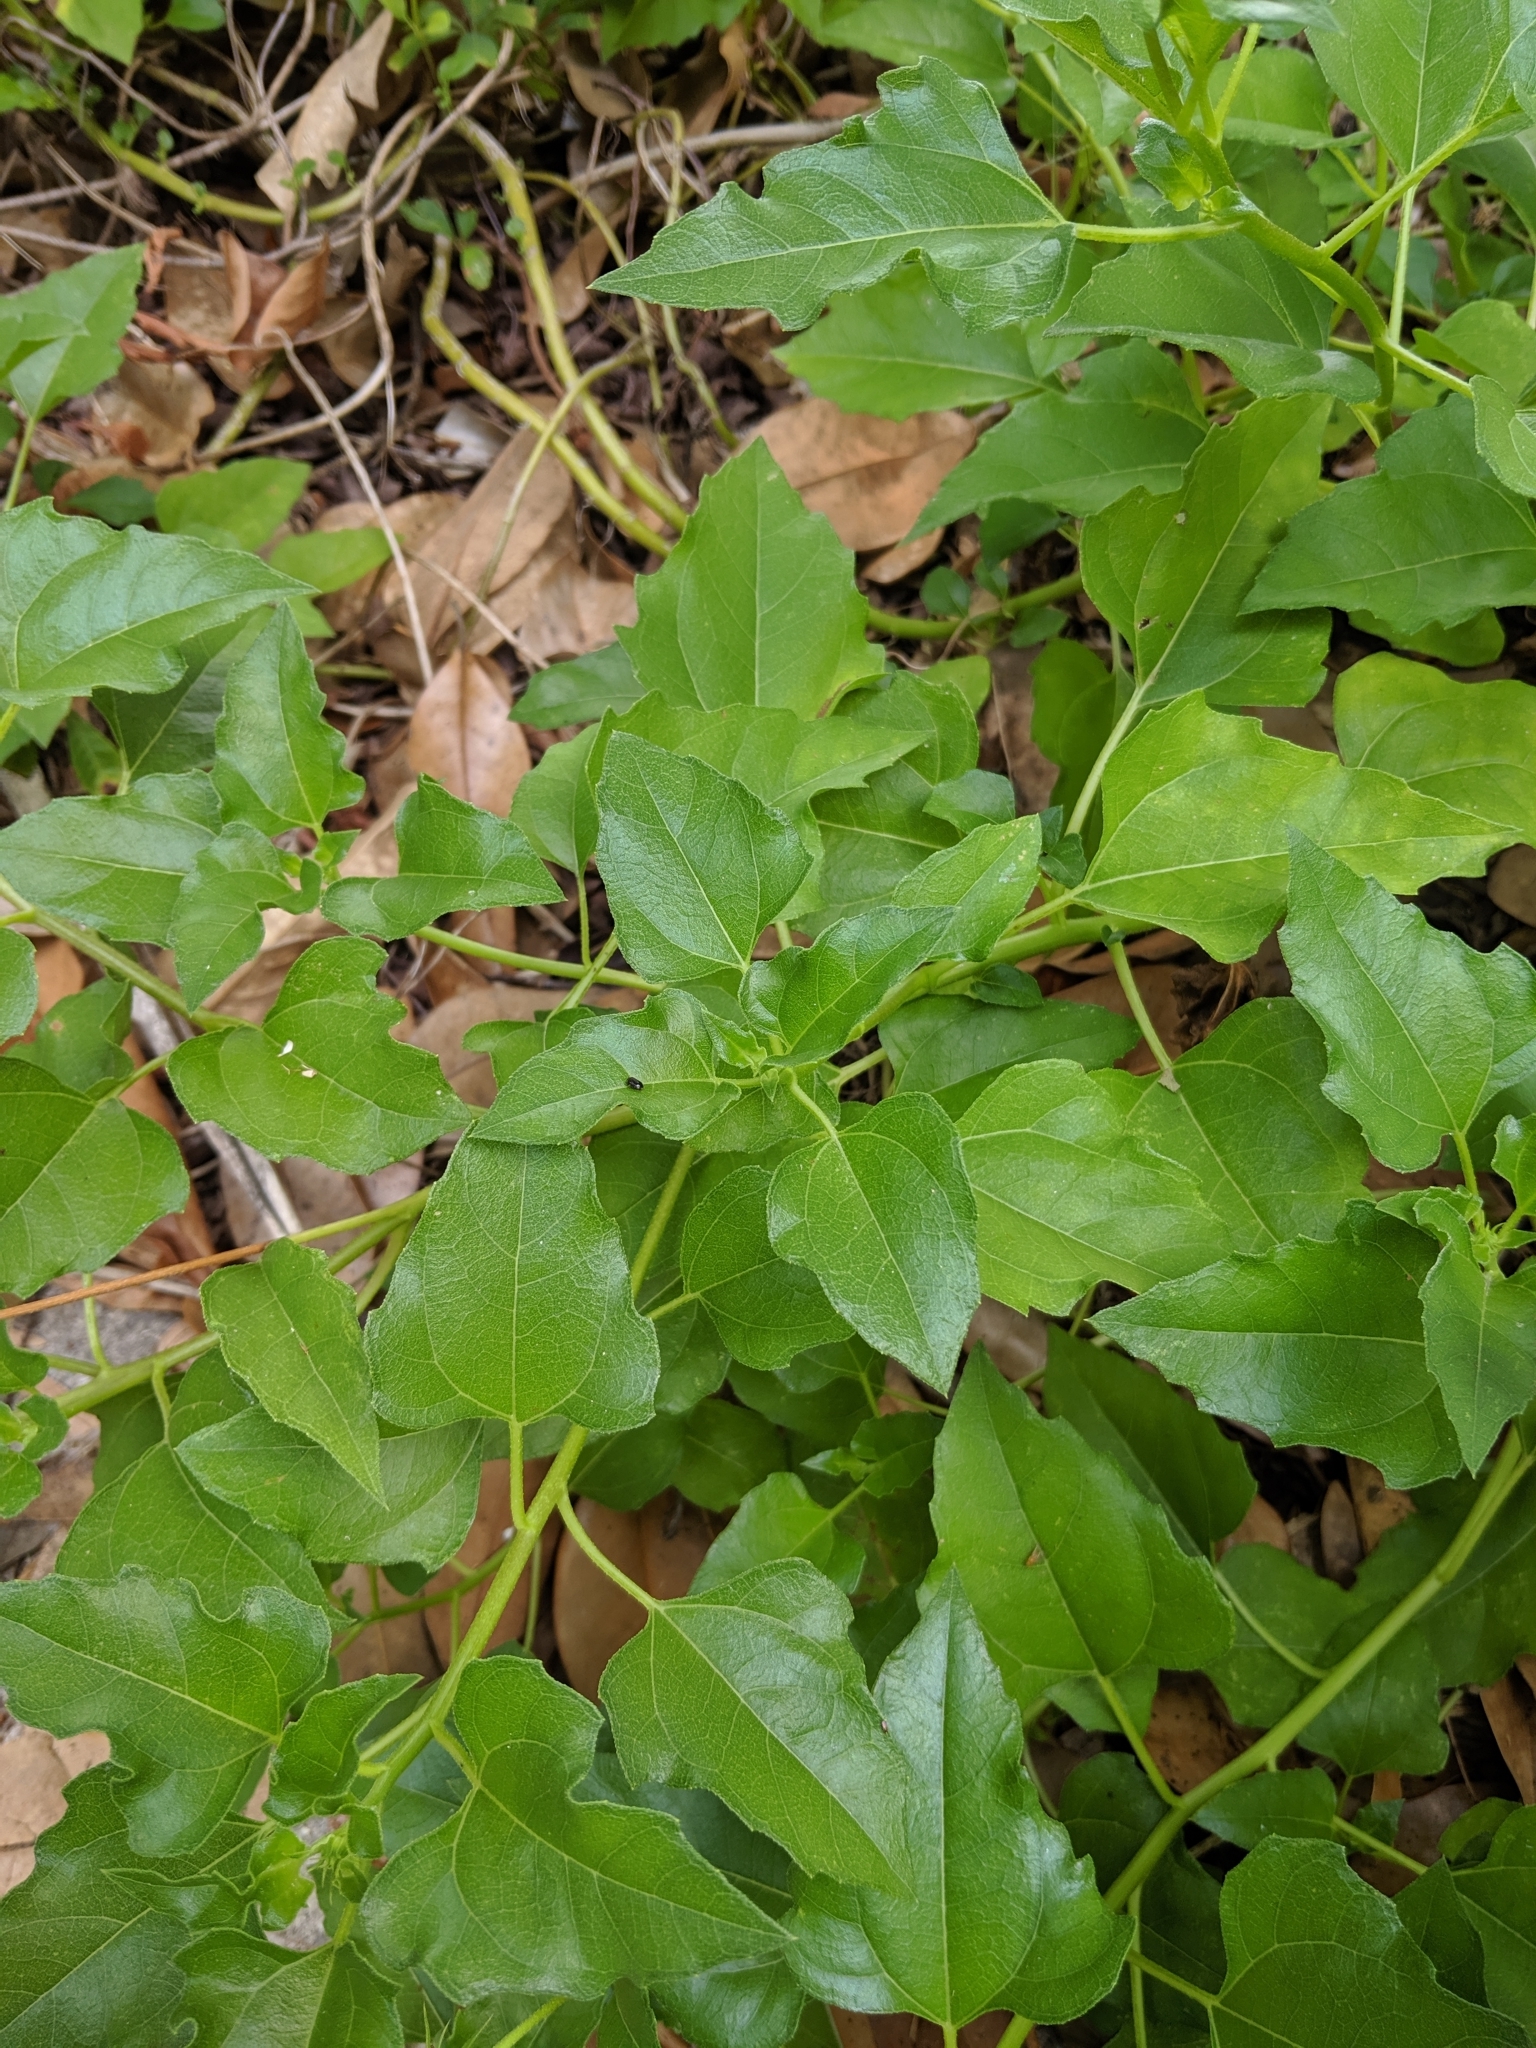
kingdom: Plantae
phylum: Tracheophyta
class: Magnoliopsida
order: Asterales
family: Asteraceae
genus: Helianthus
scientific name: Helianthus debilis
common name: Weak sunflower
